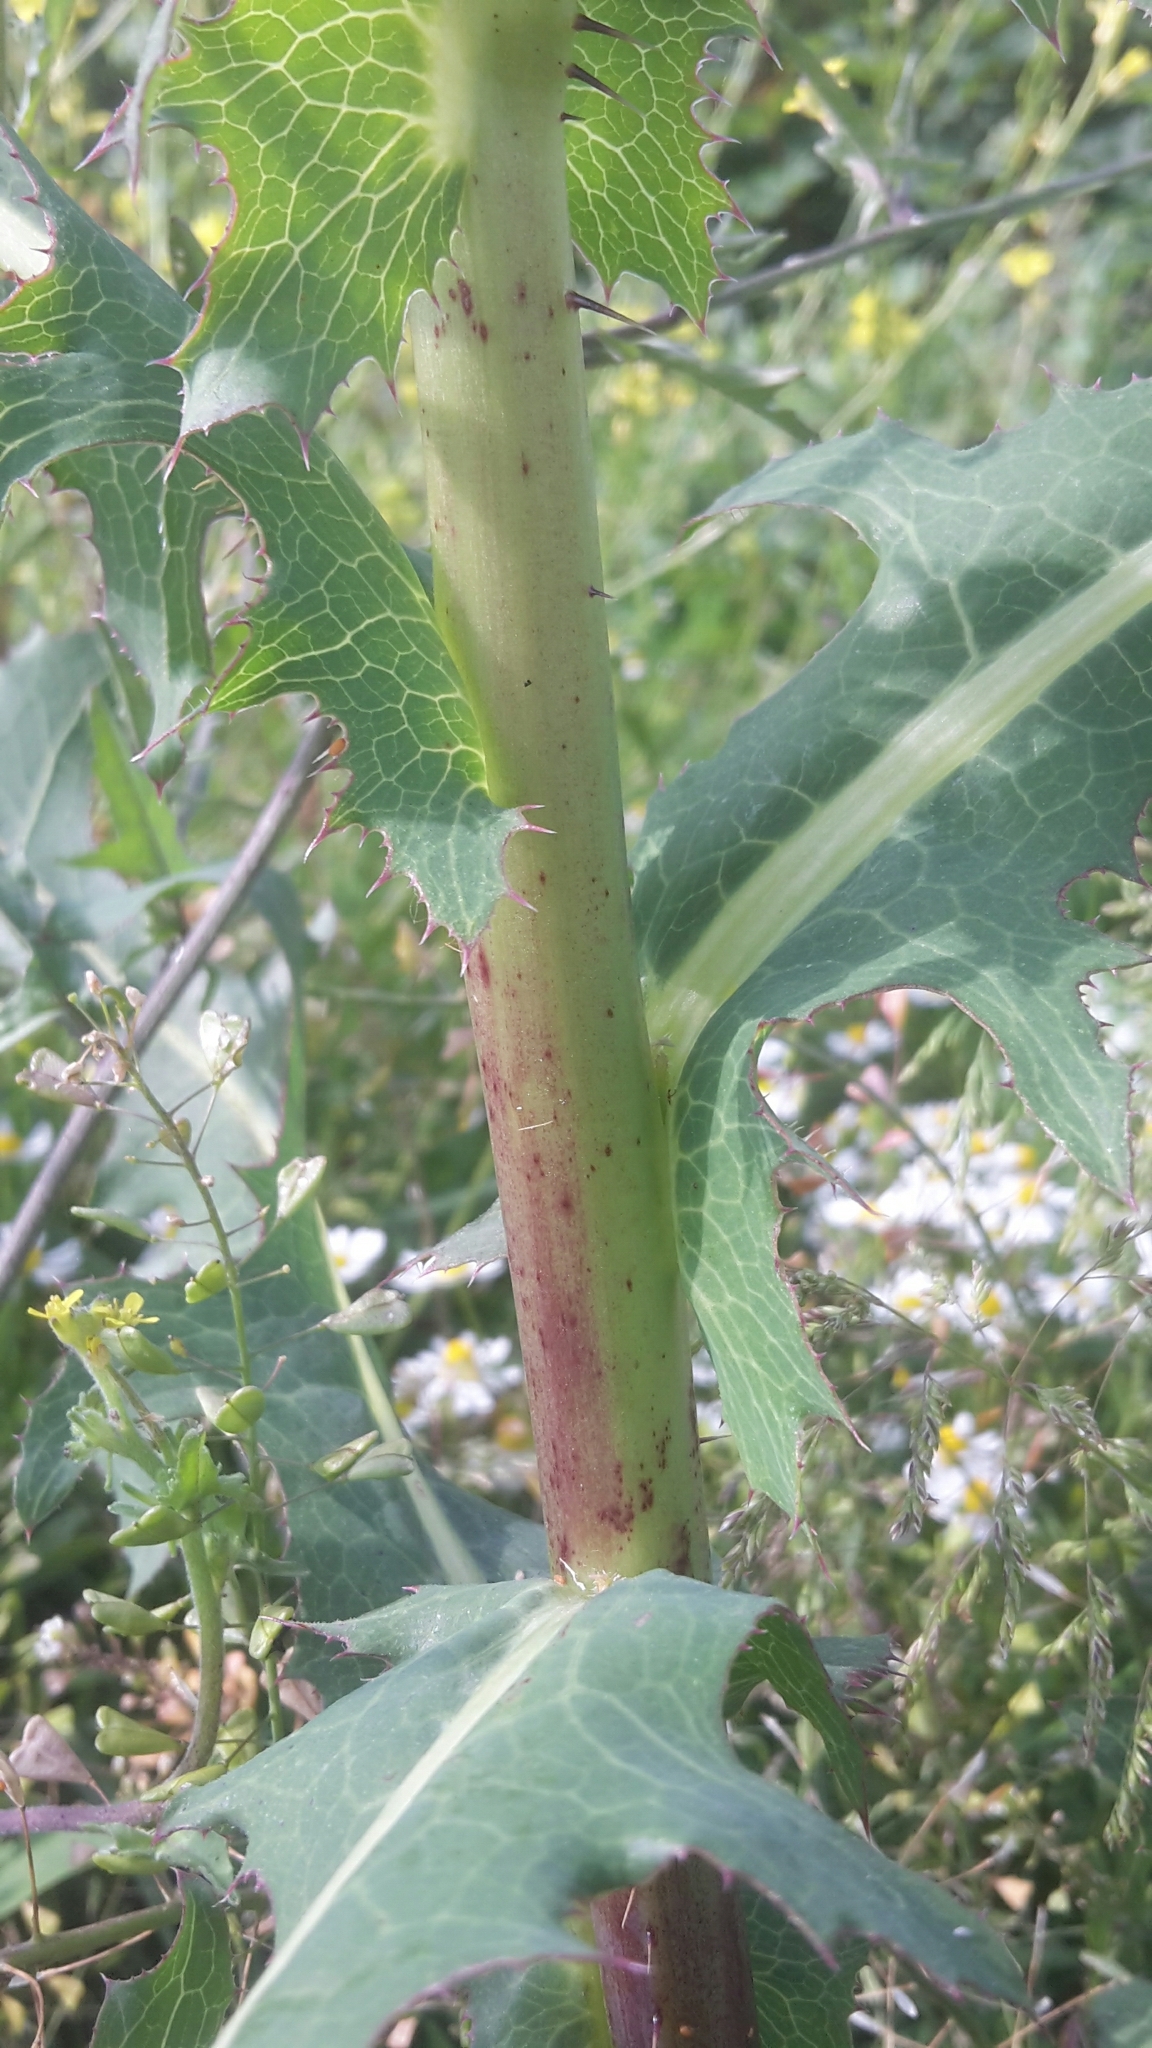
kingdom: Plantae
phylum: Tracheophyta
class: Magnoliopsida
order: Asterales
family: Asteraceae
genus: Lactuca
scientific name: Lactuca serriola
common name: Prickly lettuce
